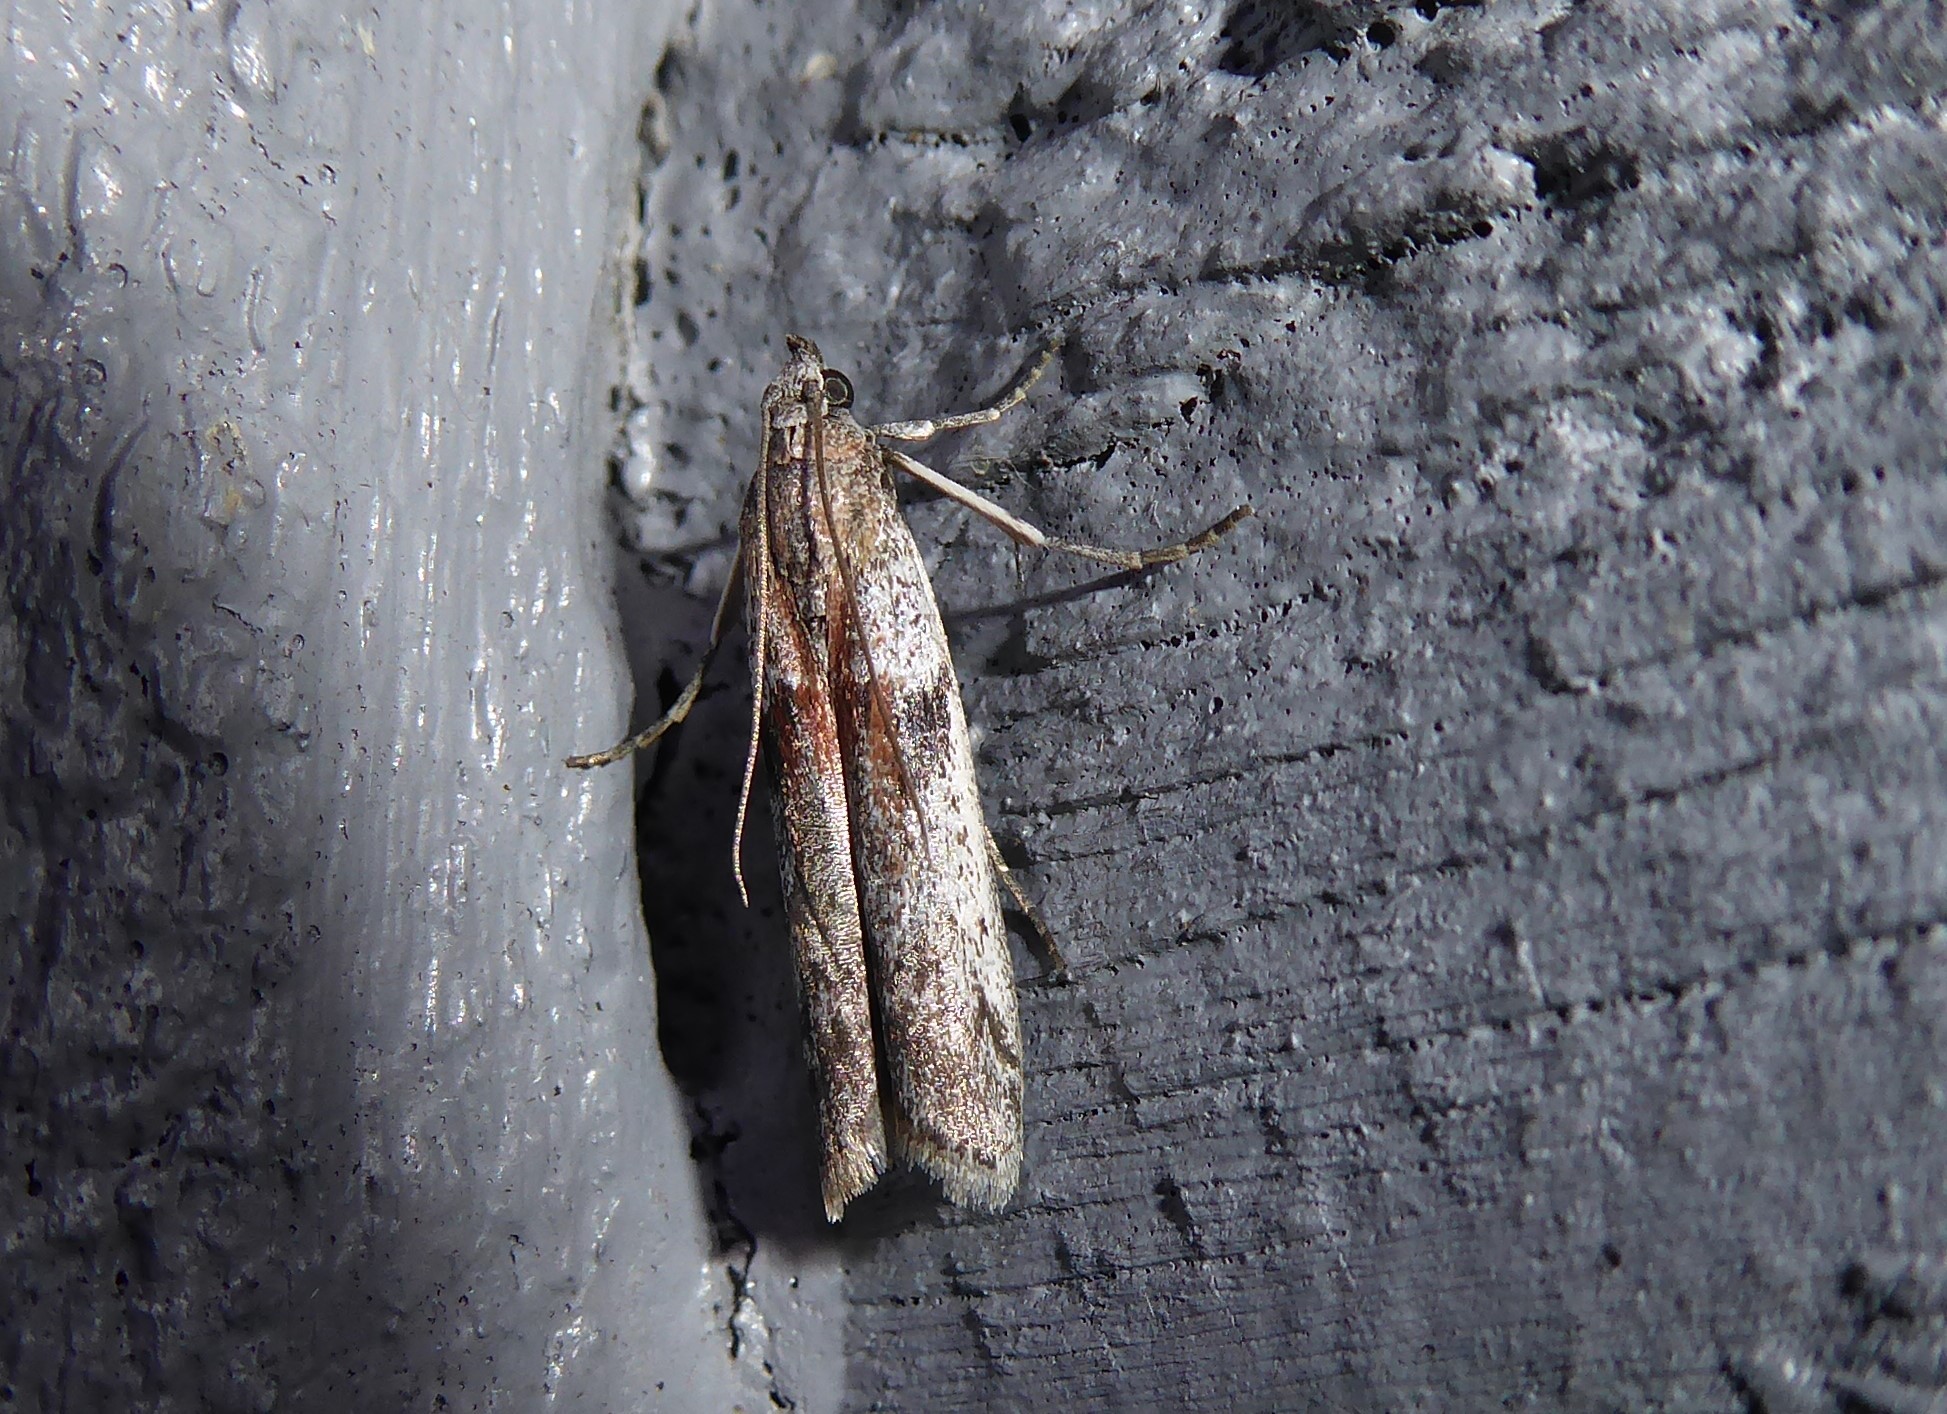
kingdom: Animalia
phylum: Arthropoda
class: Insecta
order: Lepidoptera
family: Pyralidae
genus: Patagoniodes
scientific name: Patagoniodes farinaria
